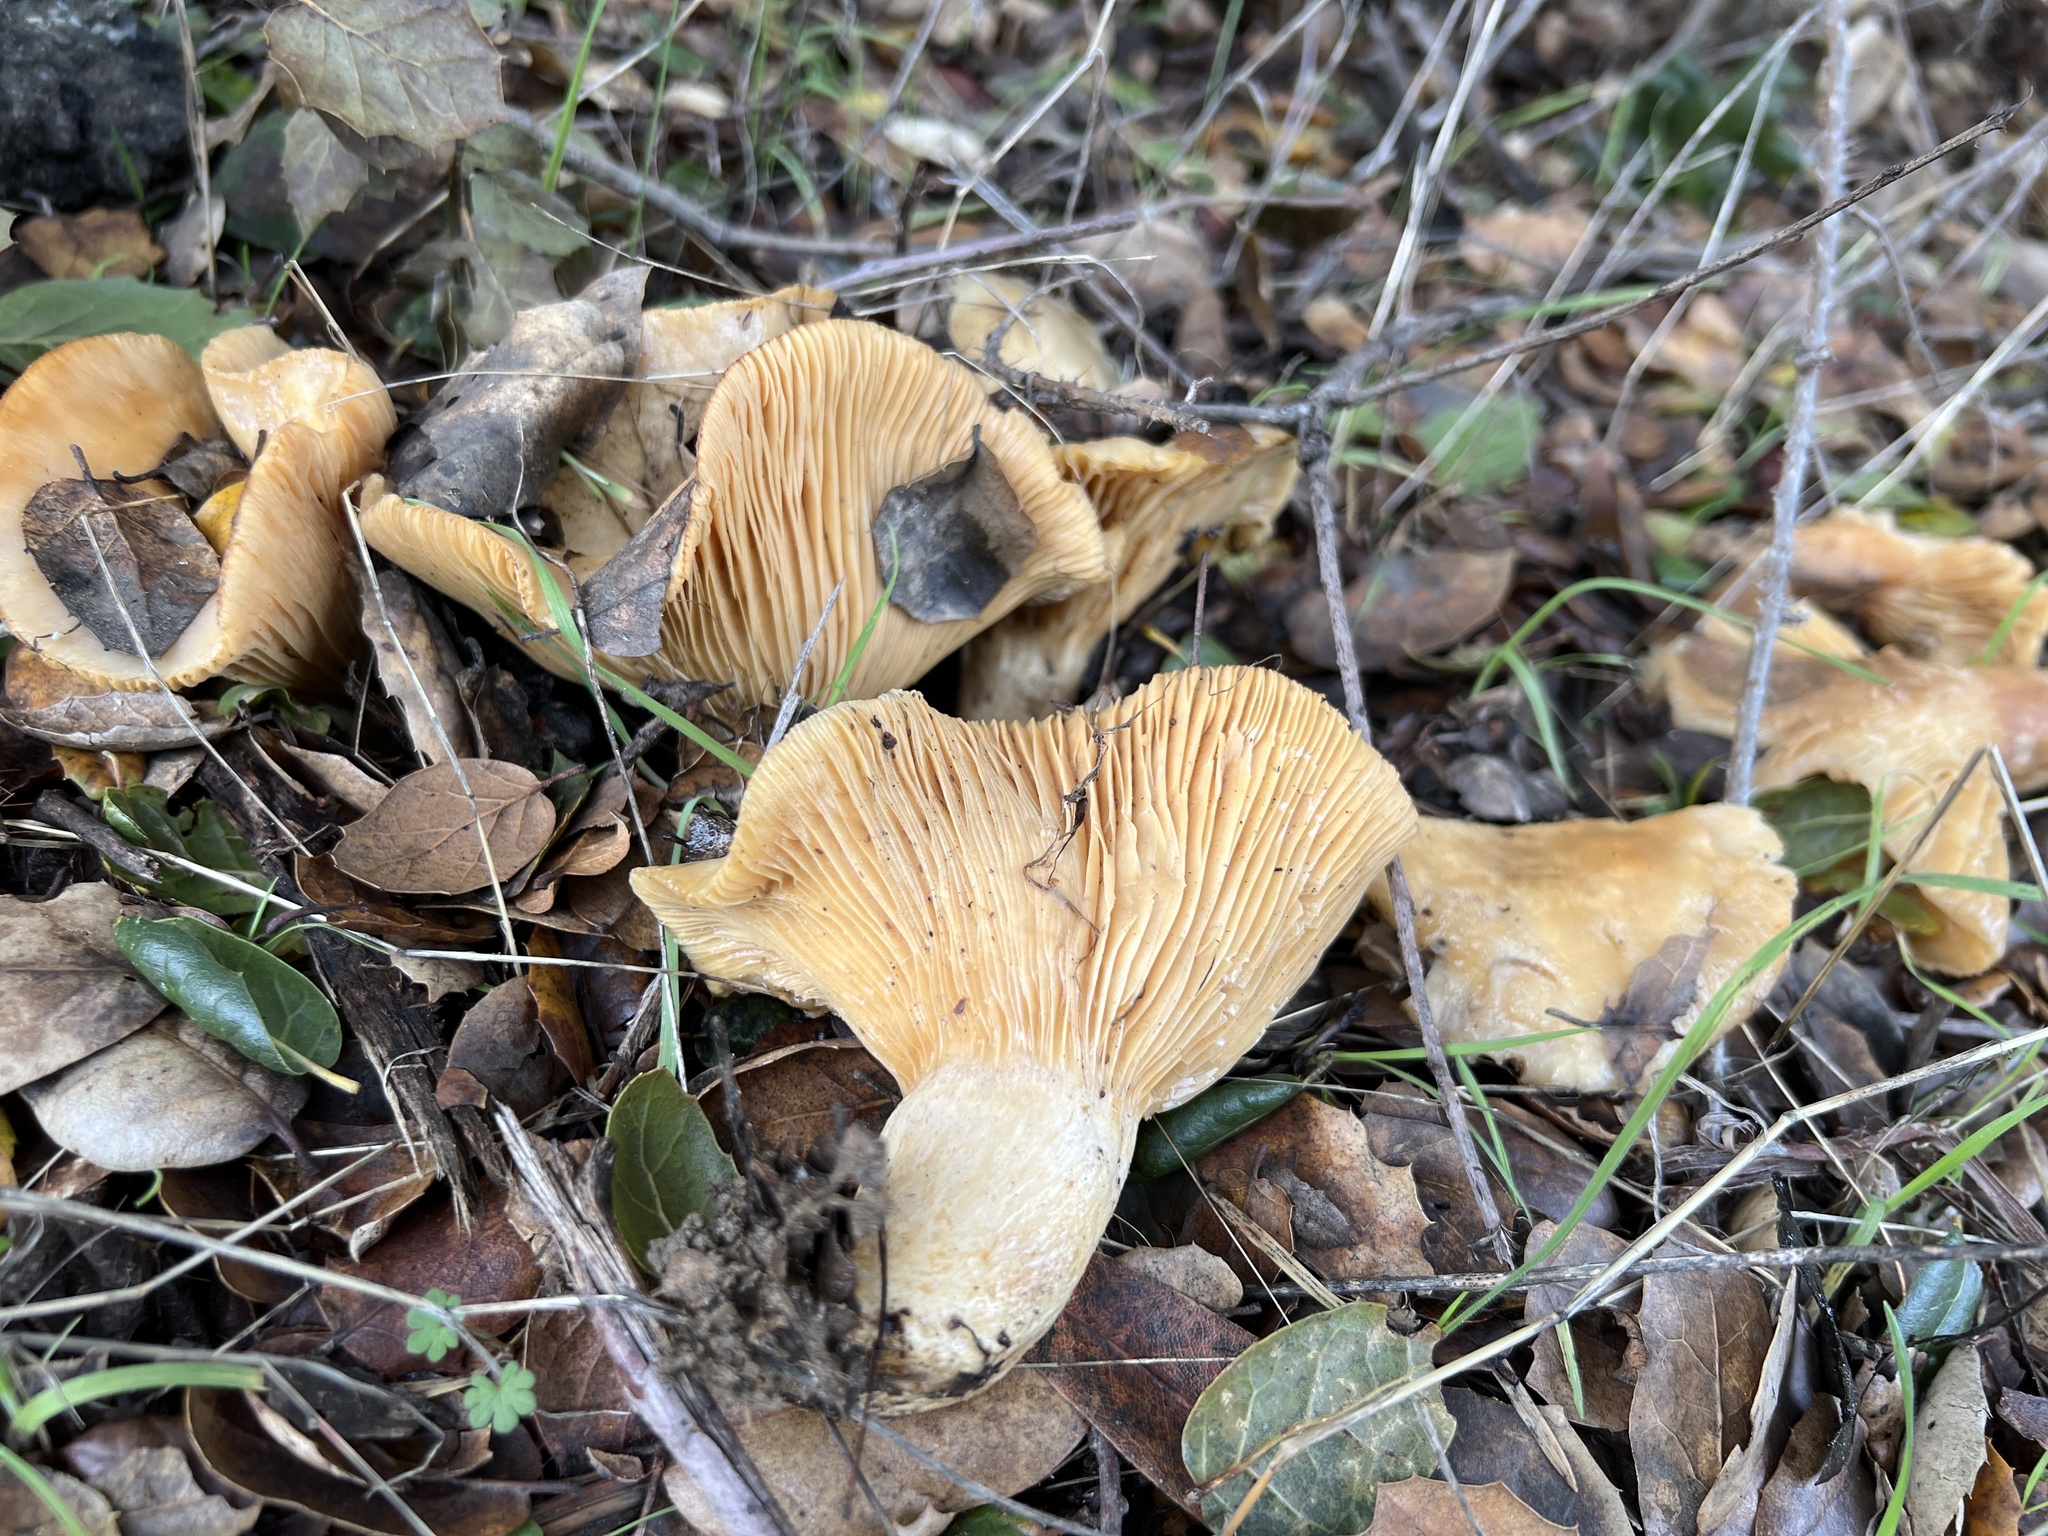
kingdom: Fungi
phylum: Basidiomycota
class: Agaricomycetes
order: Russulales
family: Russulaceae
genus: Lactarius
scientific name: Lactarius alnicola
